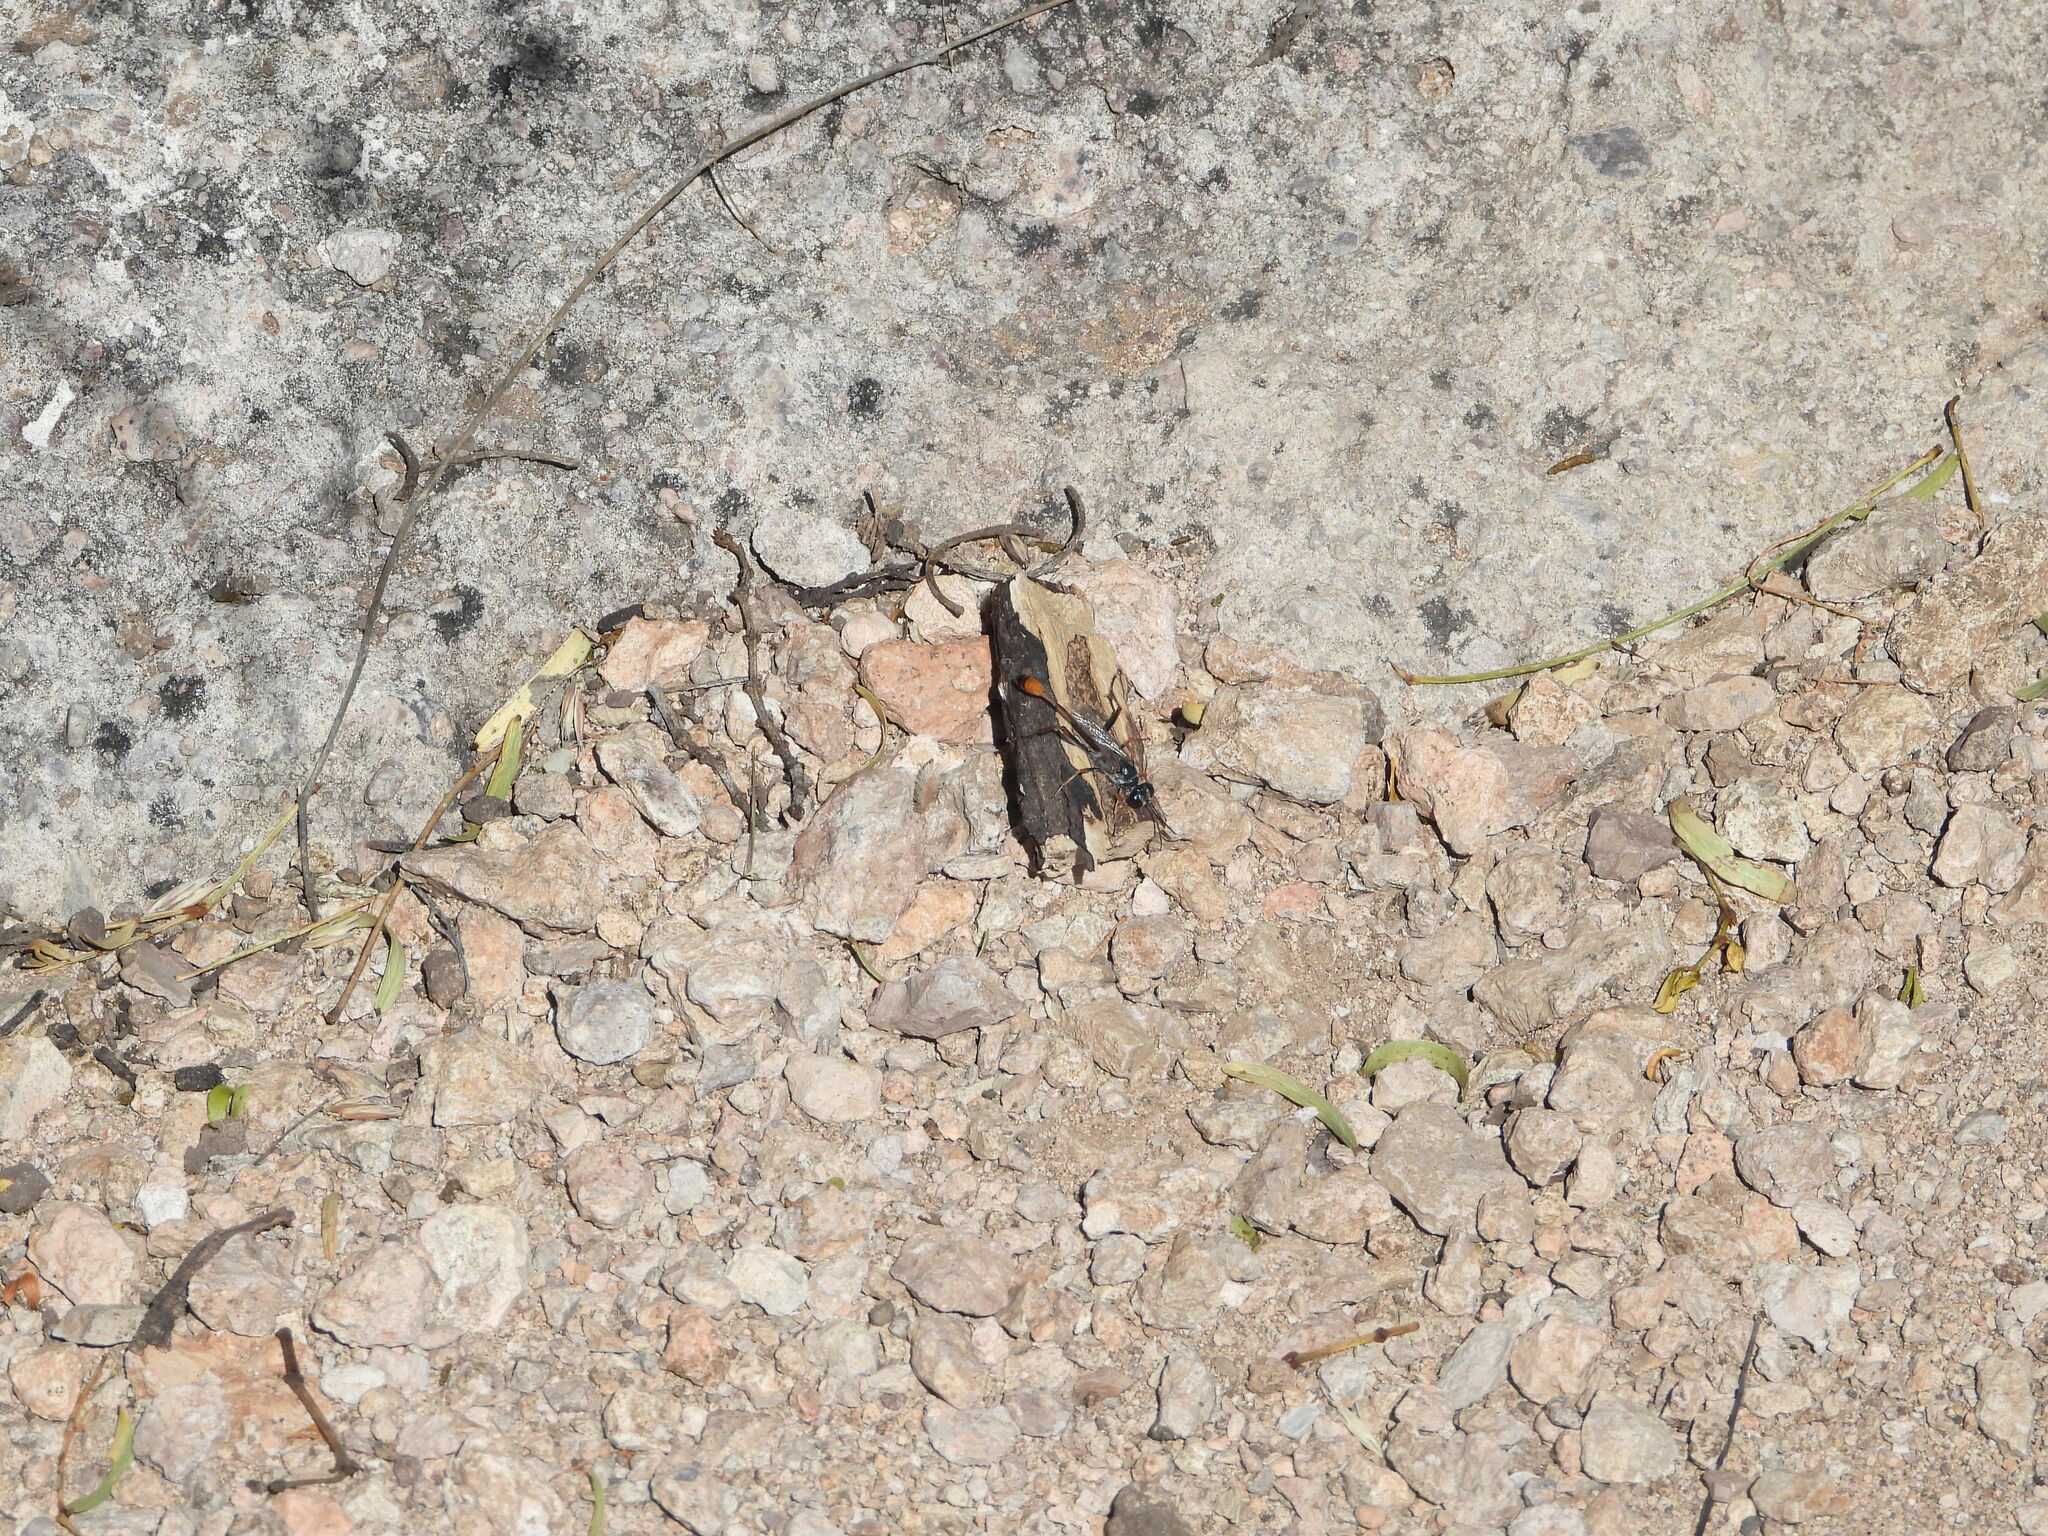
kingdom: Animalia
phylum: Arthropoda
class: Insecta
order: Hymenoptera
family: Sphecidae
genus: Ammophila
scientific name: Ammophila
